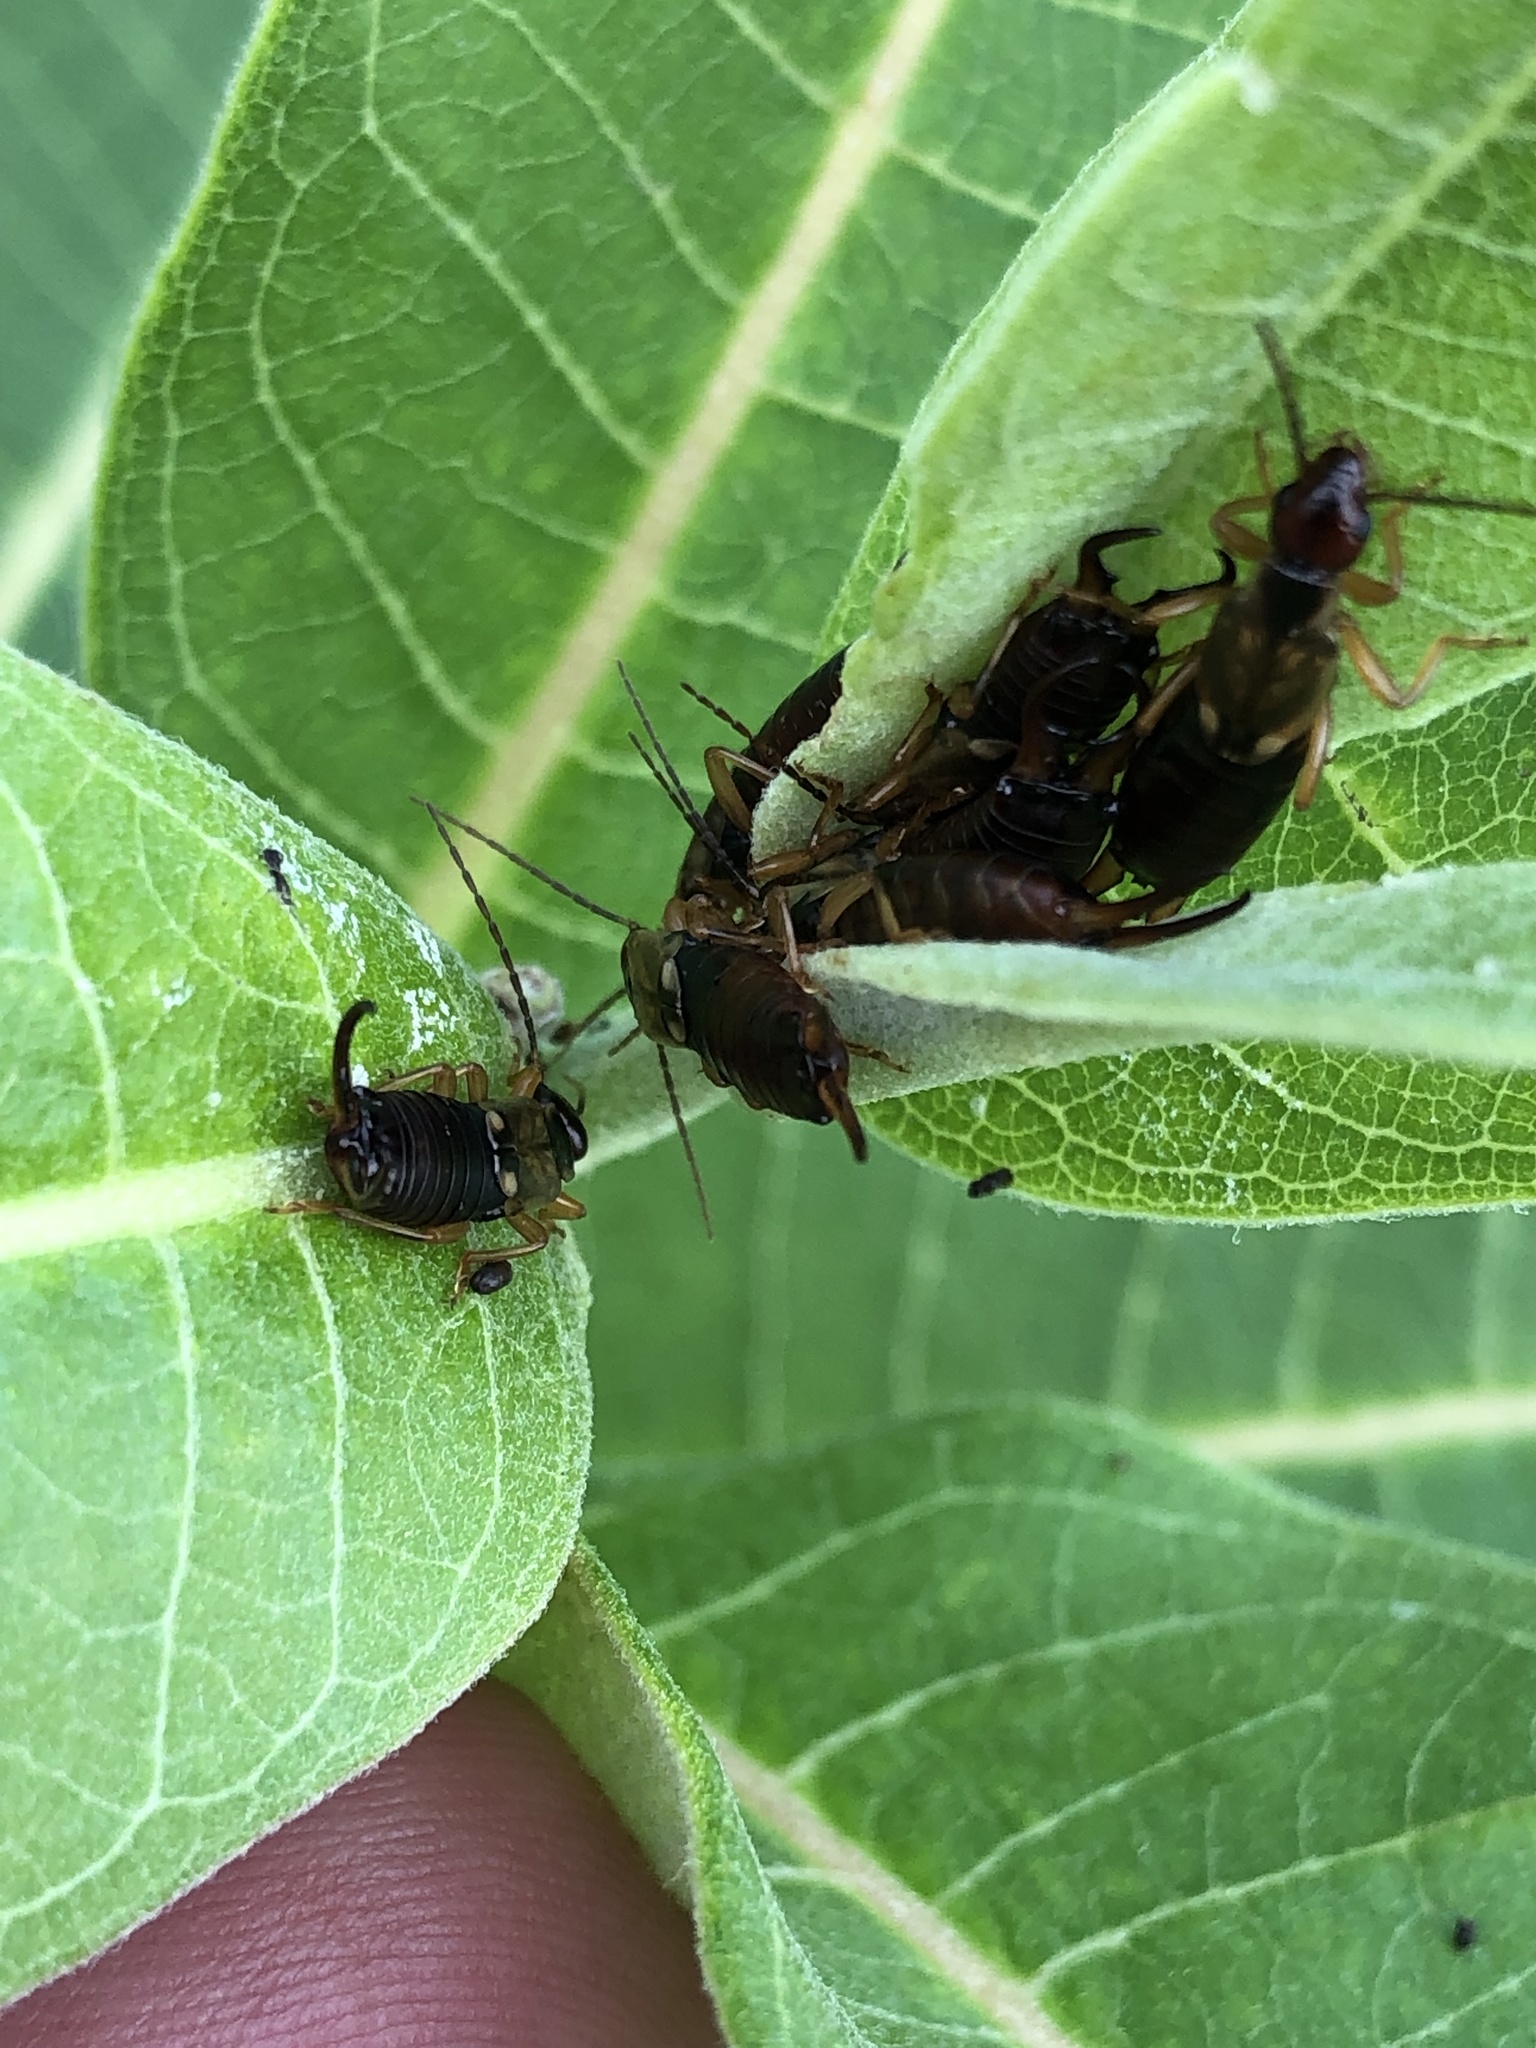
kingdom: Animalia
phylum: Arthropoda
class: Insecta
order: Dermaptera
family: Forficulidae
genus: Forficula
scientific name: Forficula
